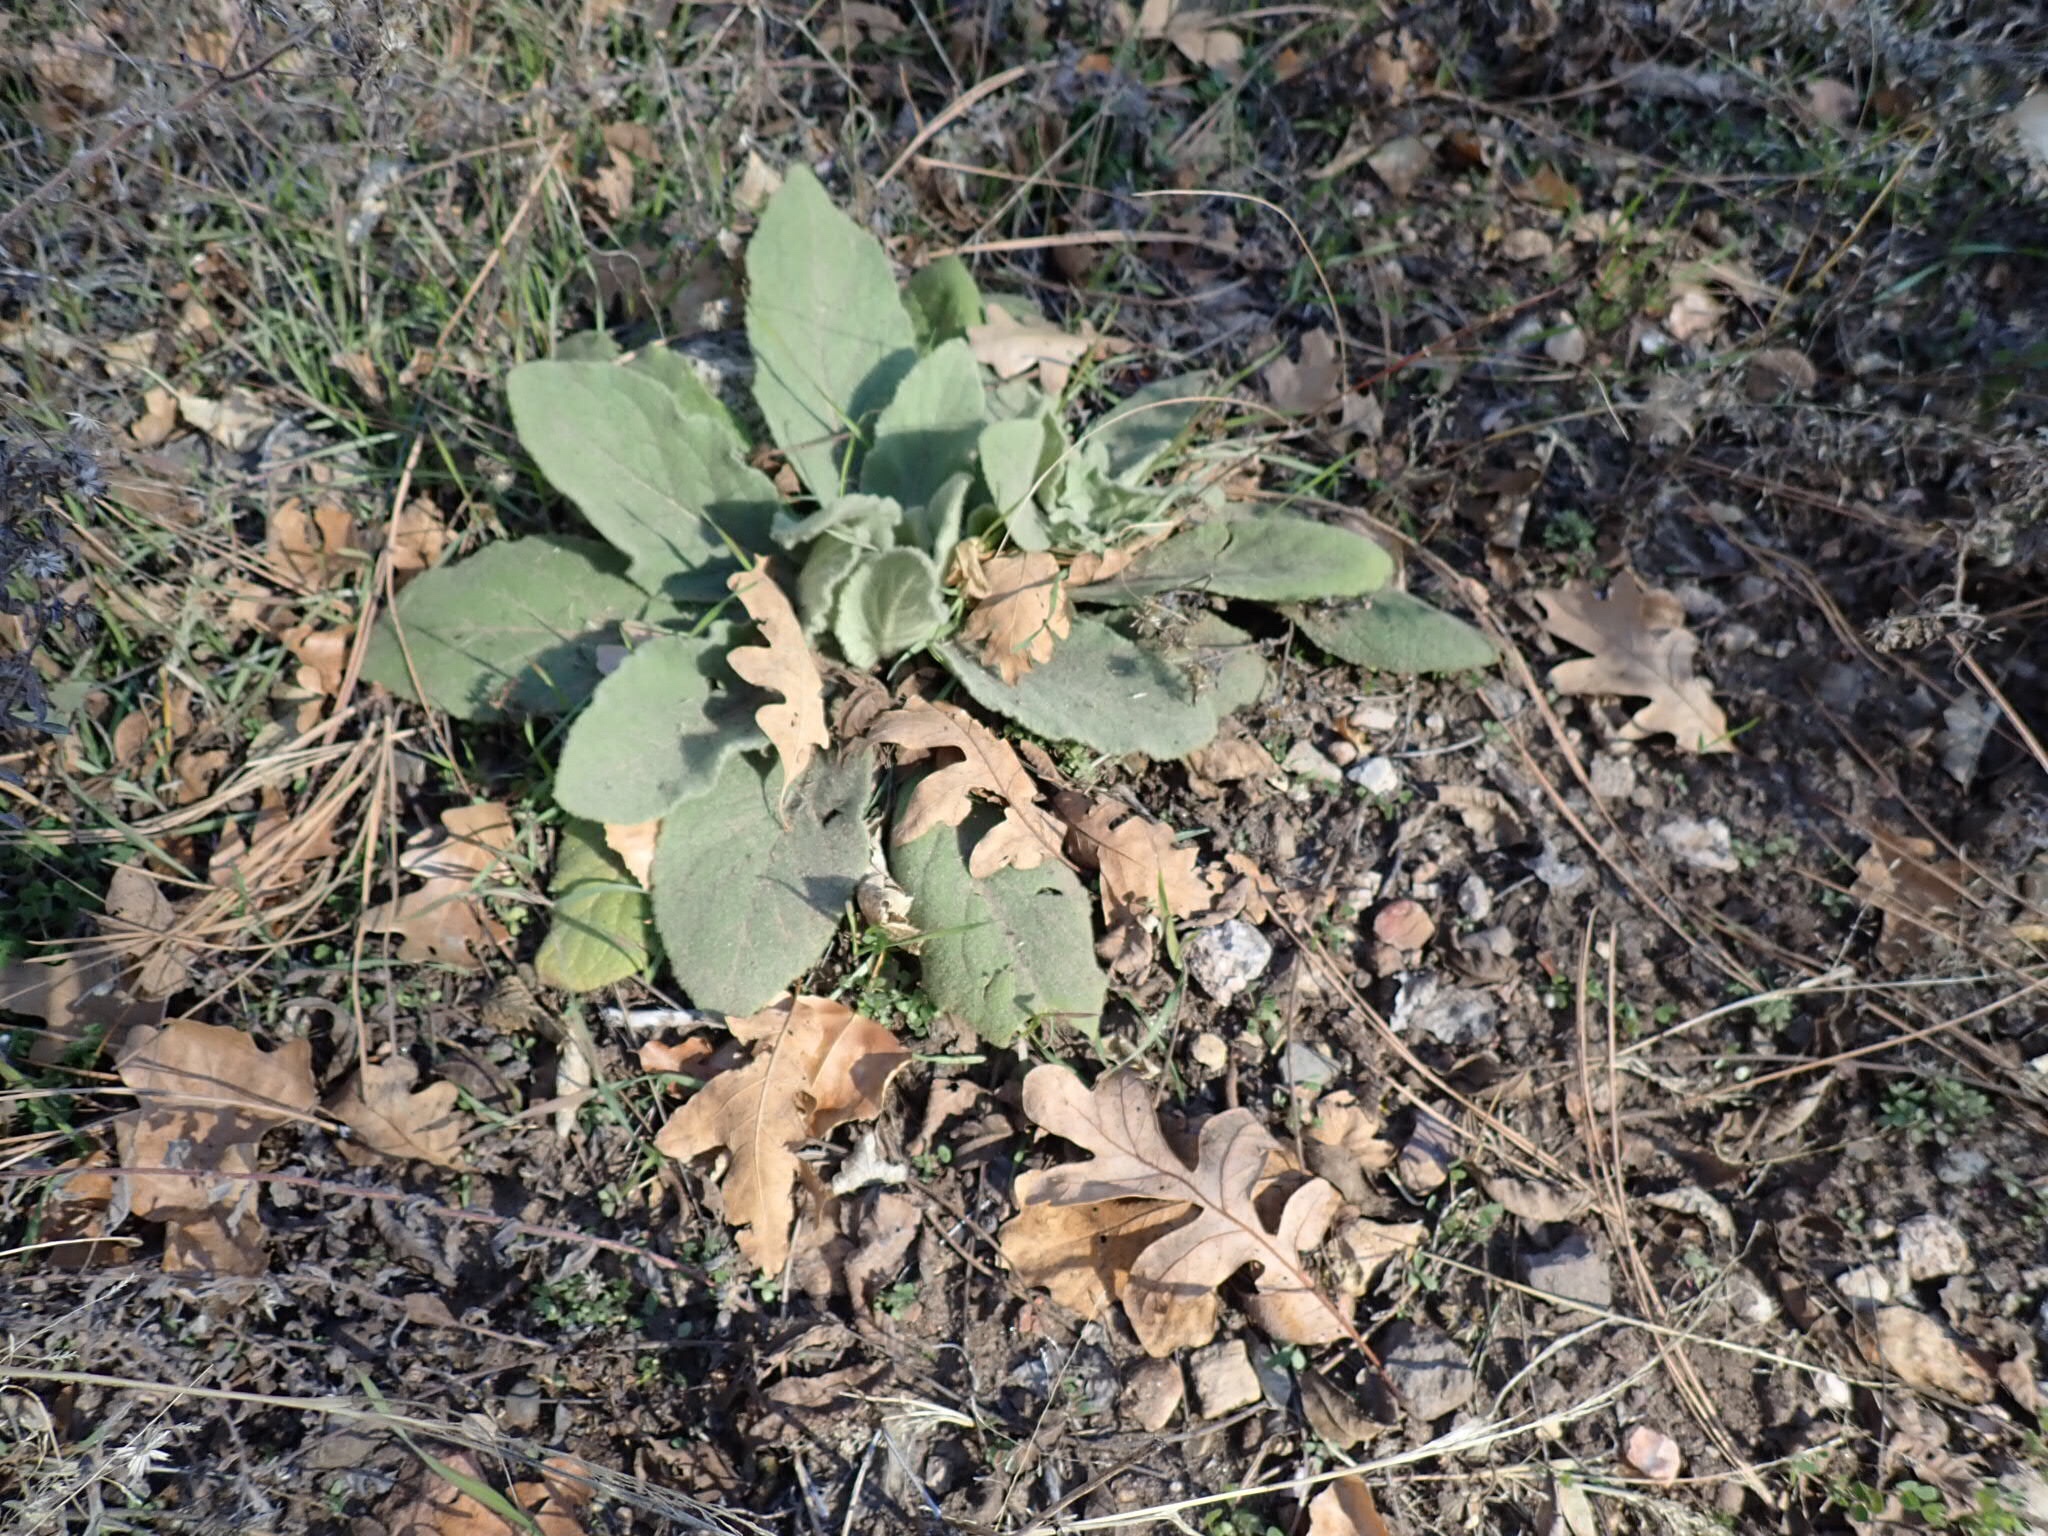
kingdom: Plantae
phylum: Tracheophyta
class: Magnoliopsida
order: Lamiales
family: Scrophulariaceae
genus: Verbascum
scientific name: Verbascum thapsus
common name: Common mullein
